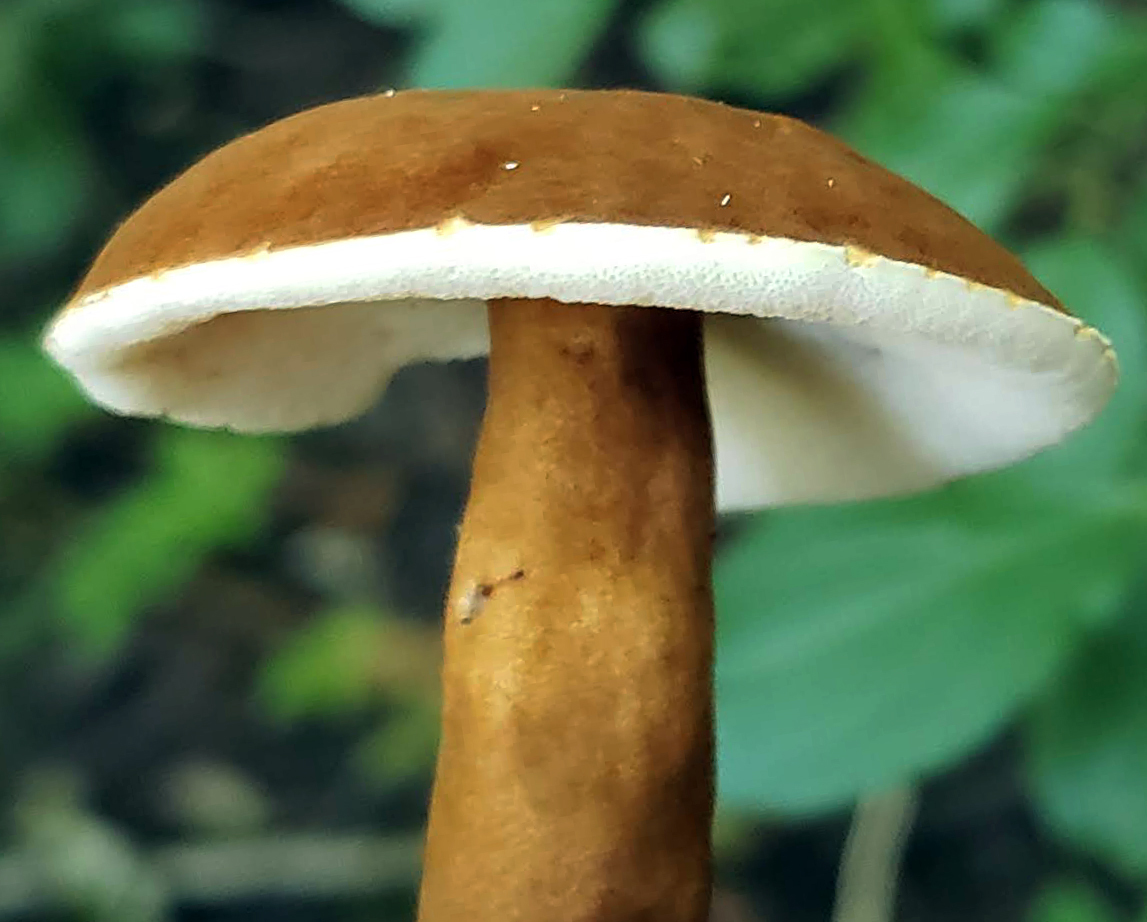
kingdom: Fungi
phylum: Basidiomycota
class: Agaricomycetes
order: Boletales
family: Gyroporaceae
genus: Gyroporus
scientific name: Gyroporus castaneus
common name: Chestnut bolete
